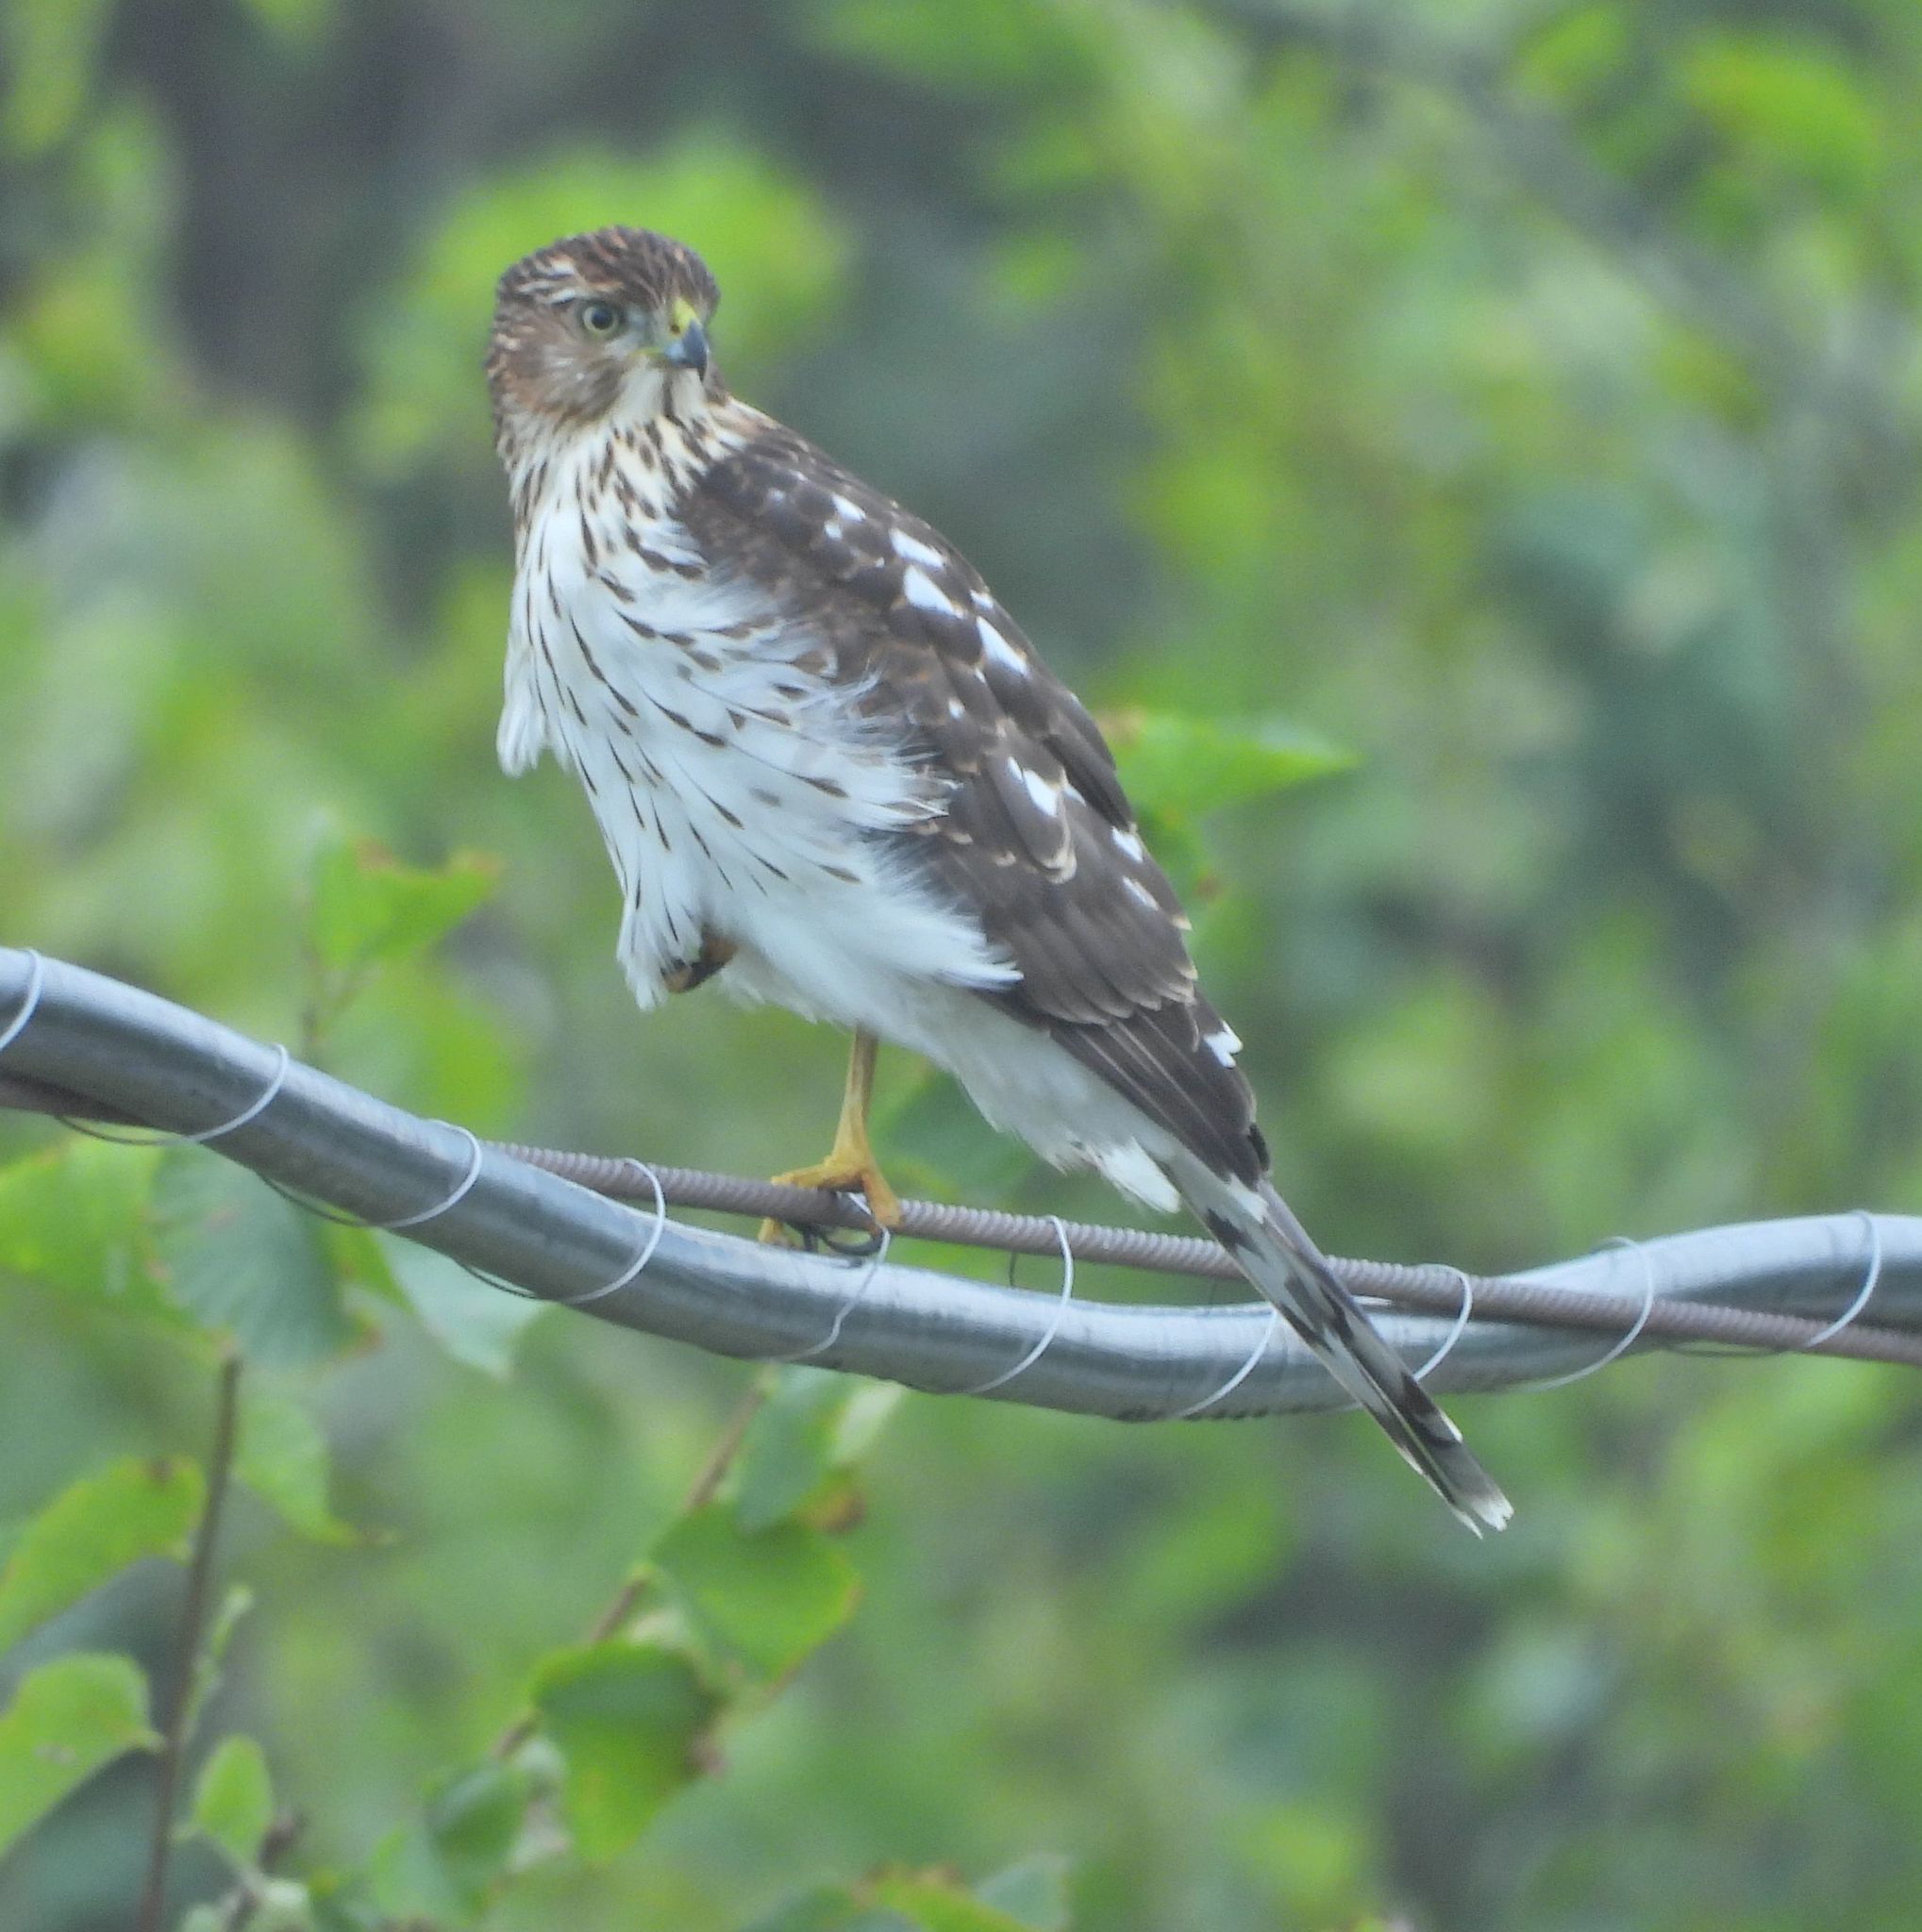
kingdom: Animalia
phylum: Chordata
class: Aves
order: Accipitriformes
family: Accipitridae
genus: Accipiter
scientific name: Accipiter cooperii
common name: Cooper's hawk
